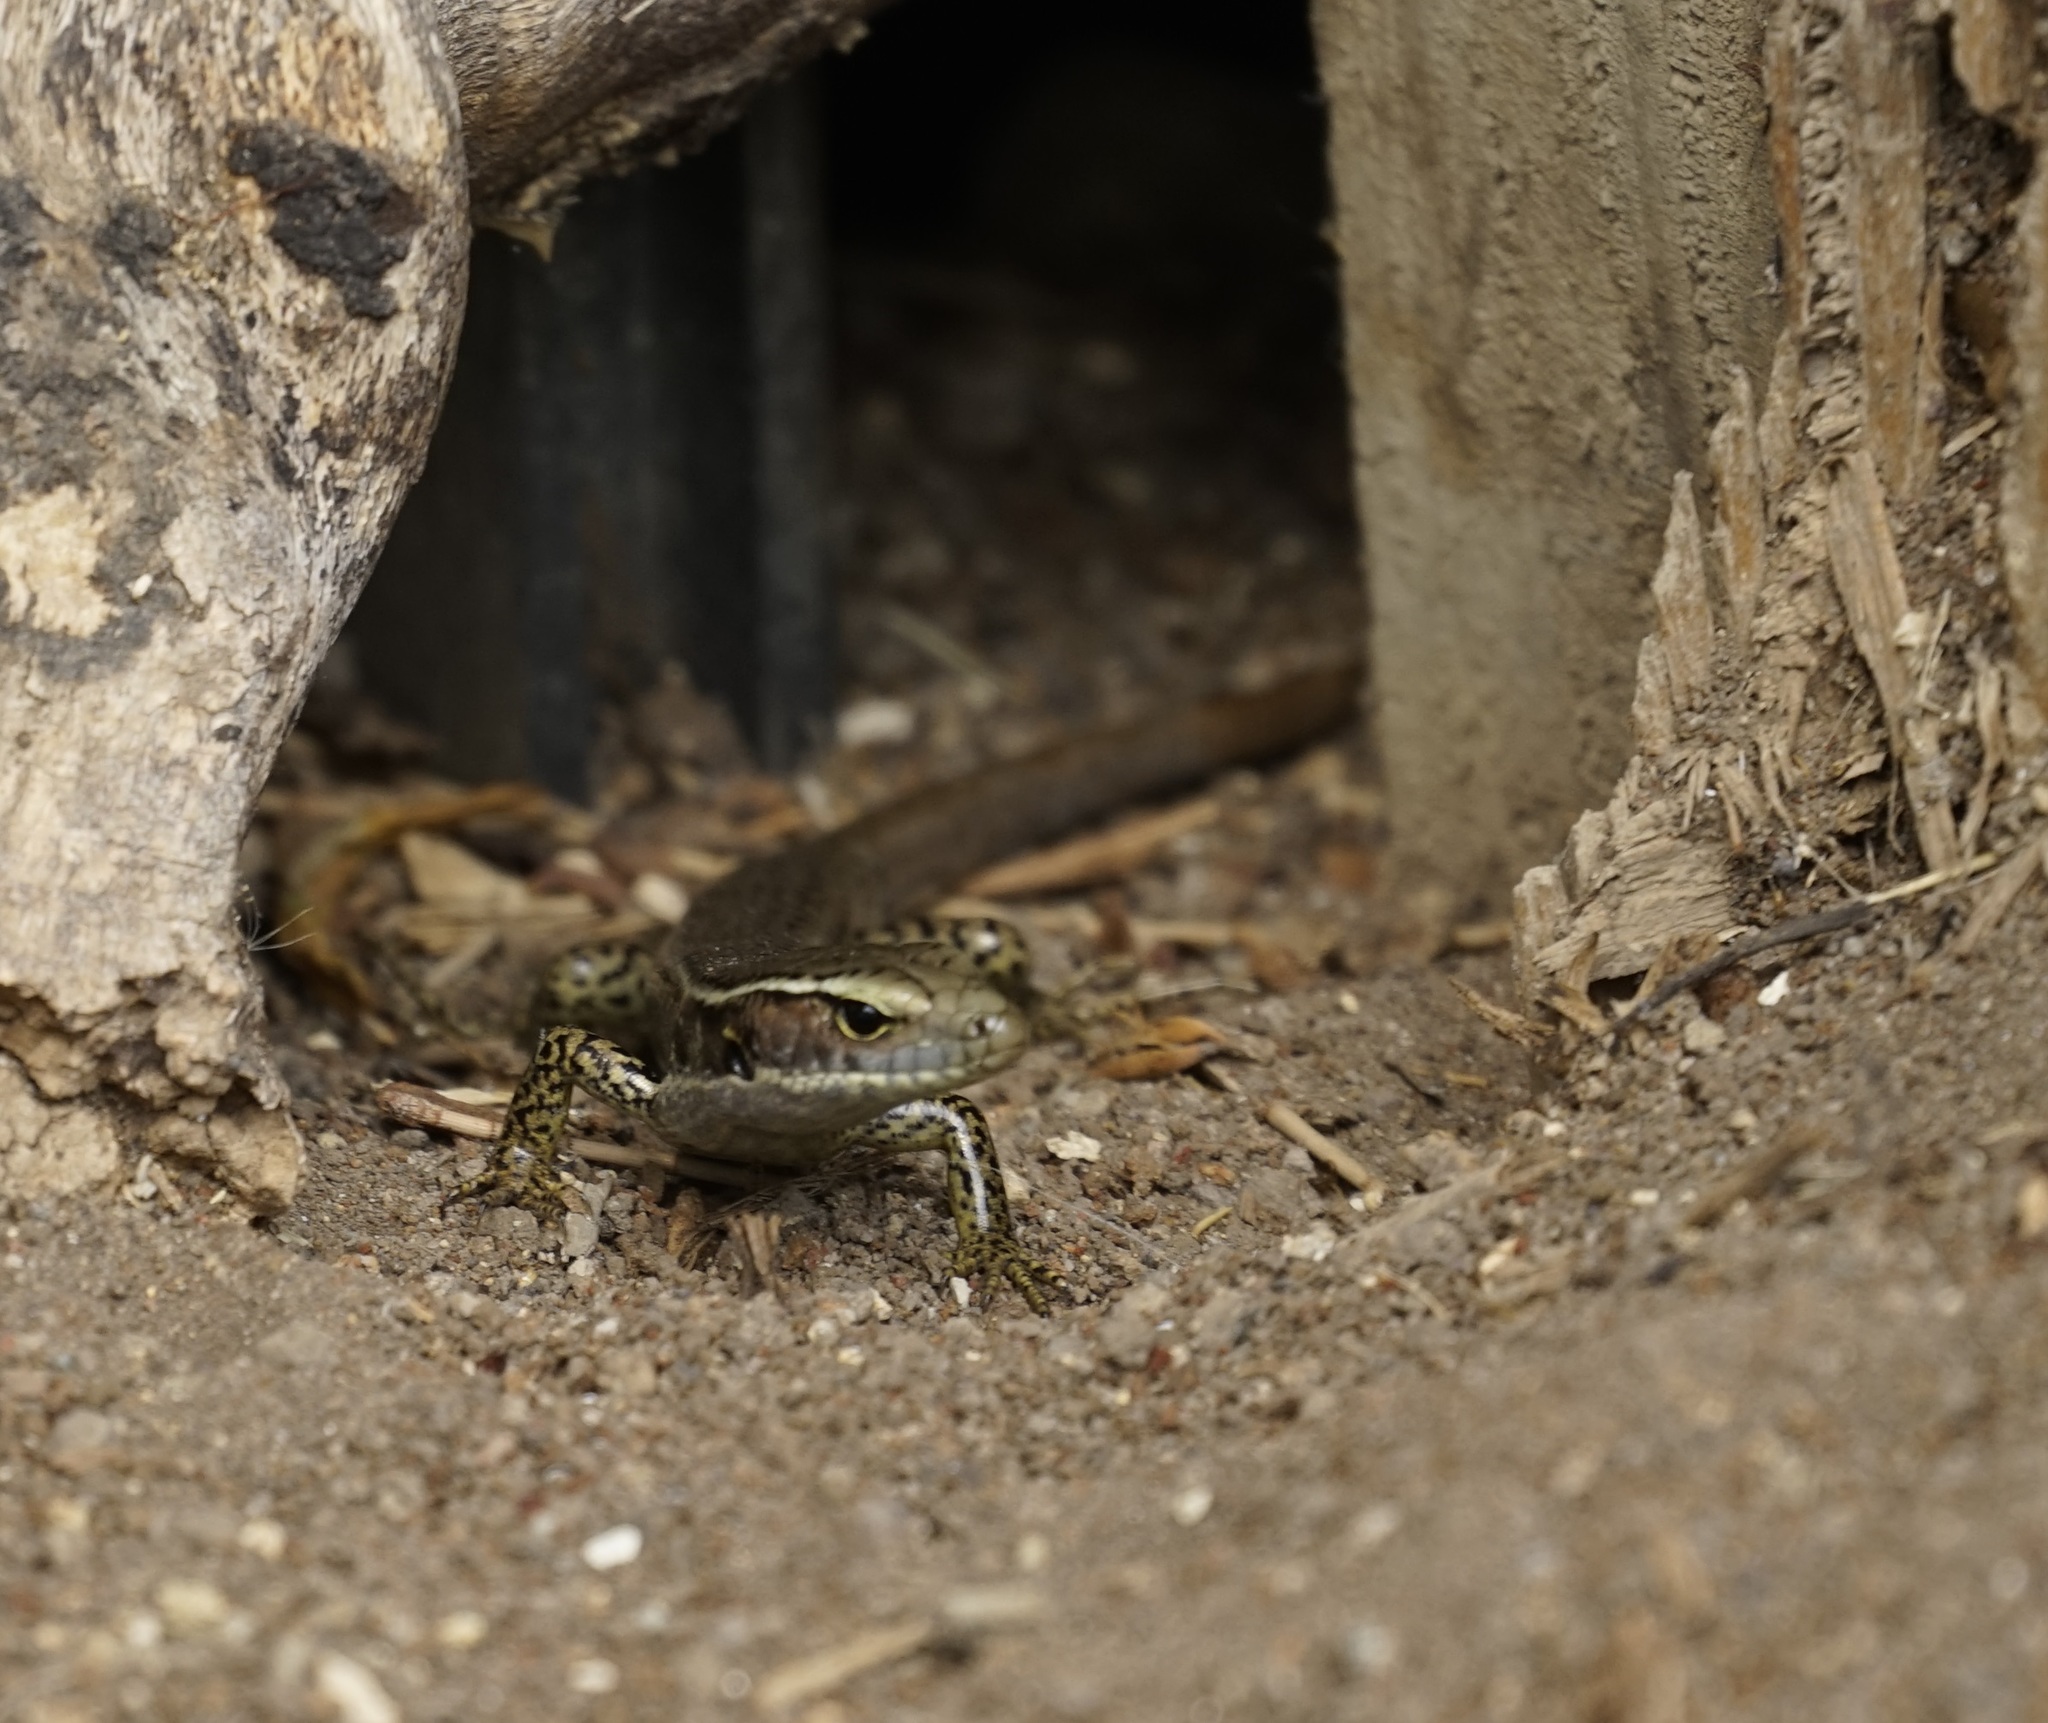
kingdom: Animalia
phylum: Chordata
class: Squamata
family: Scincidae
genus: Eulamprus
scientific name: Eulamprus quoyii
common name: Eastern water skink
